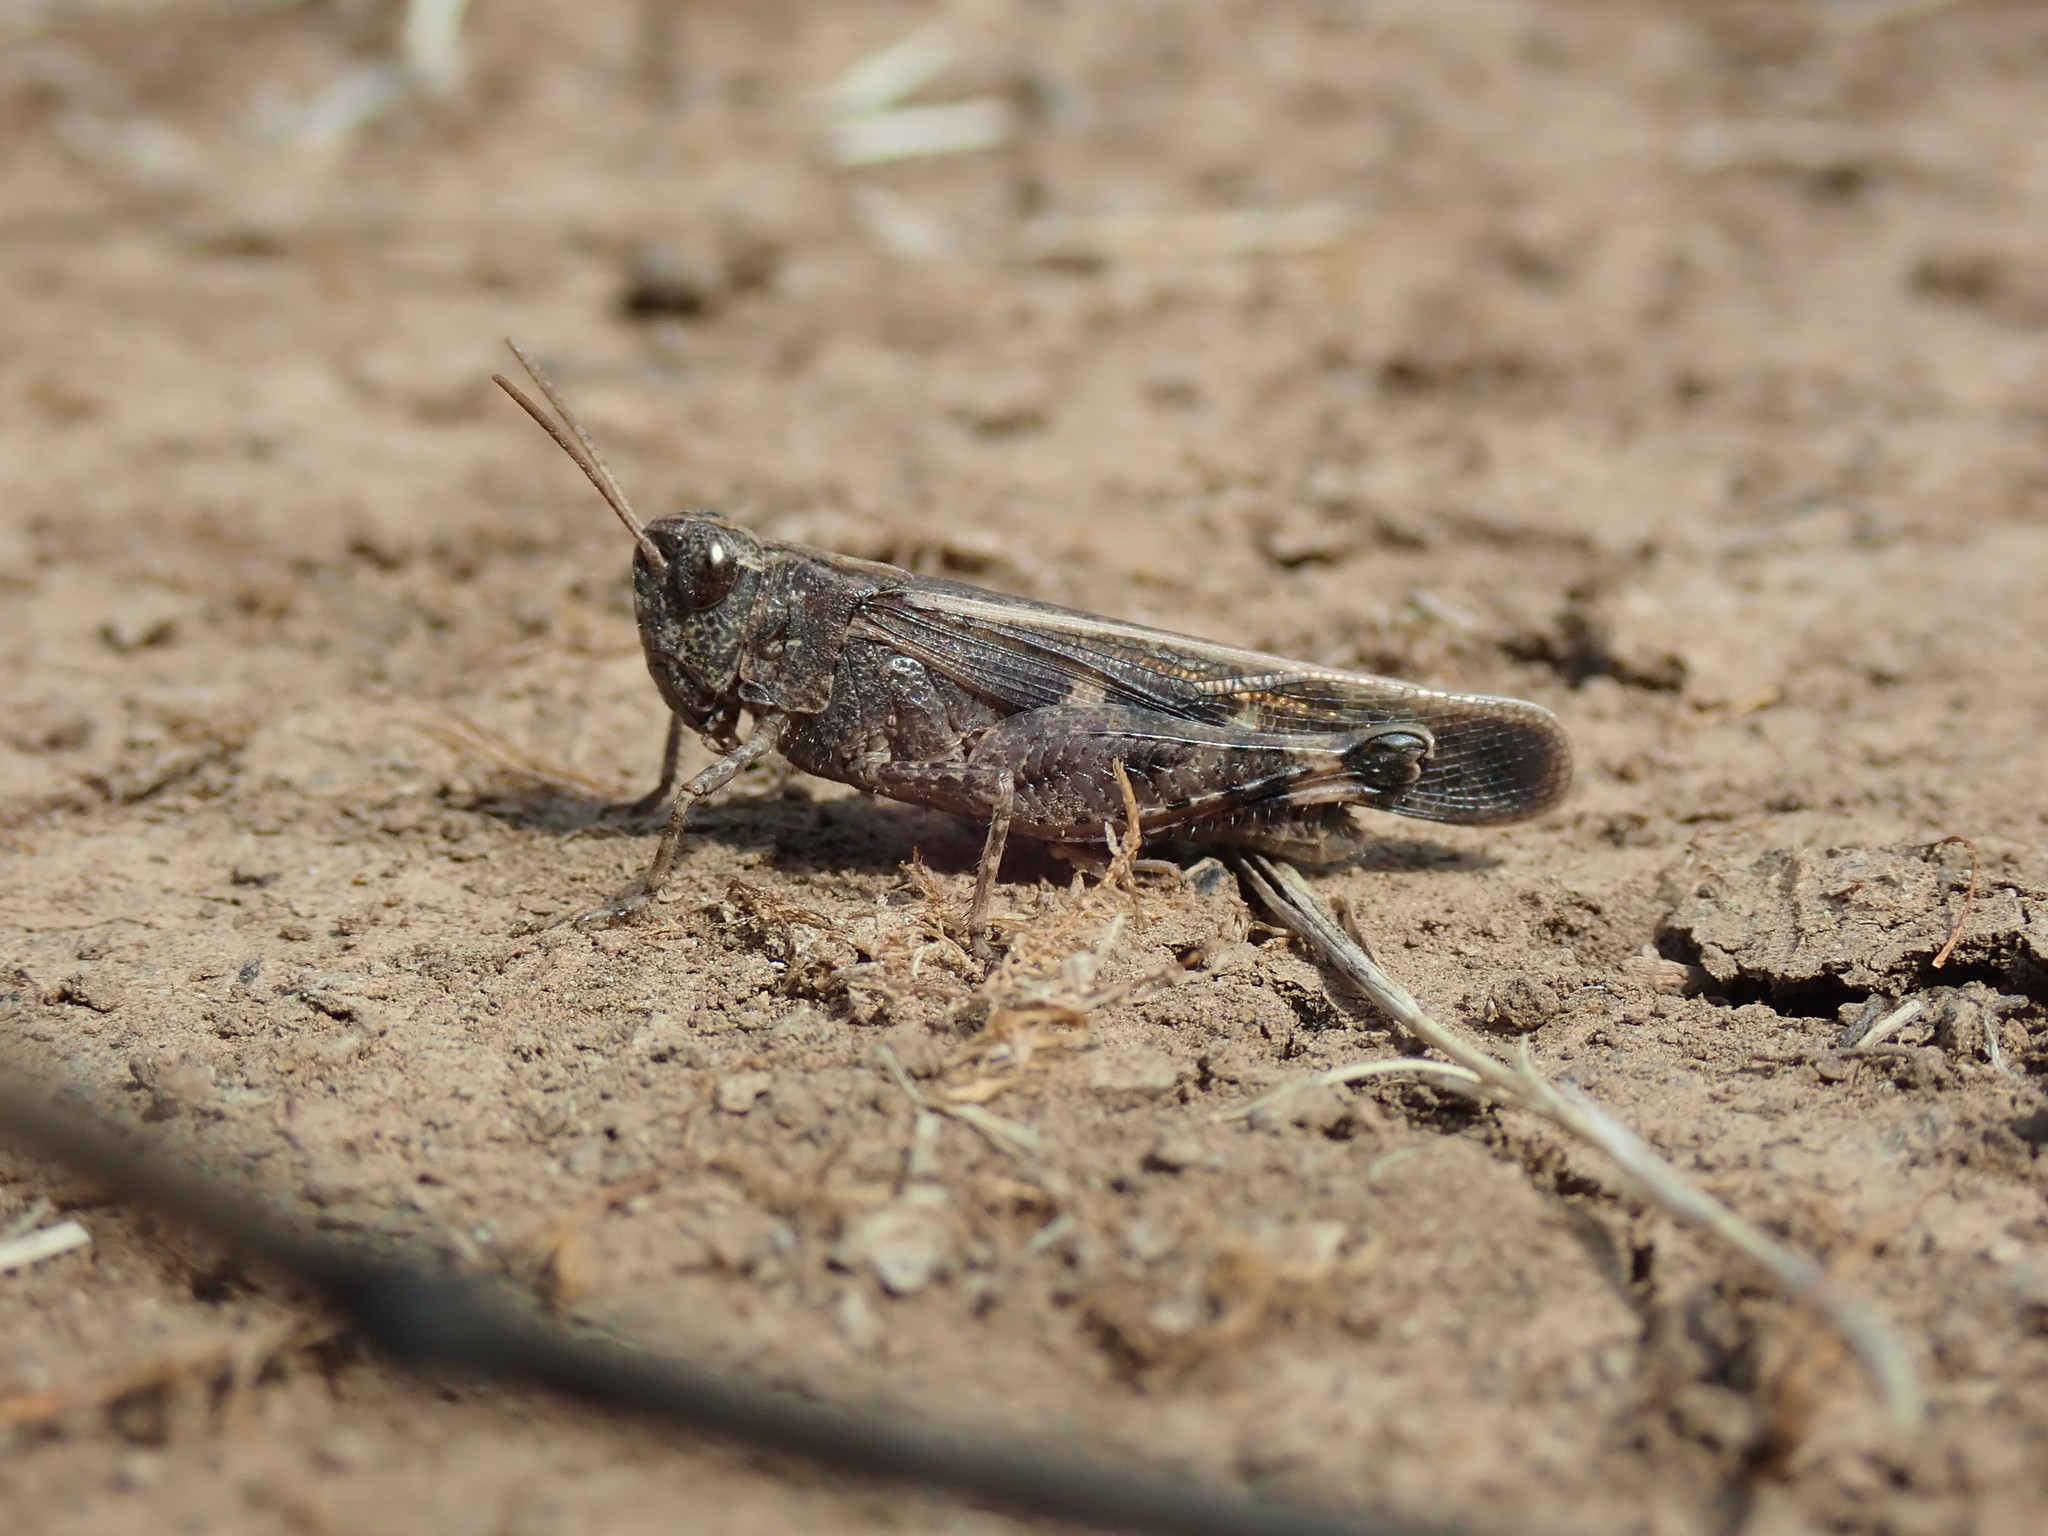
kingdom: Animalia
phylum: Arthropoda
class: Insecta
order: Orthoptera
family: Acrididae
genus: Aiolopus
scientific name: Aiolopus strepens
